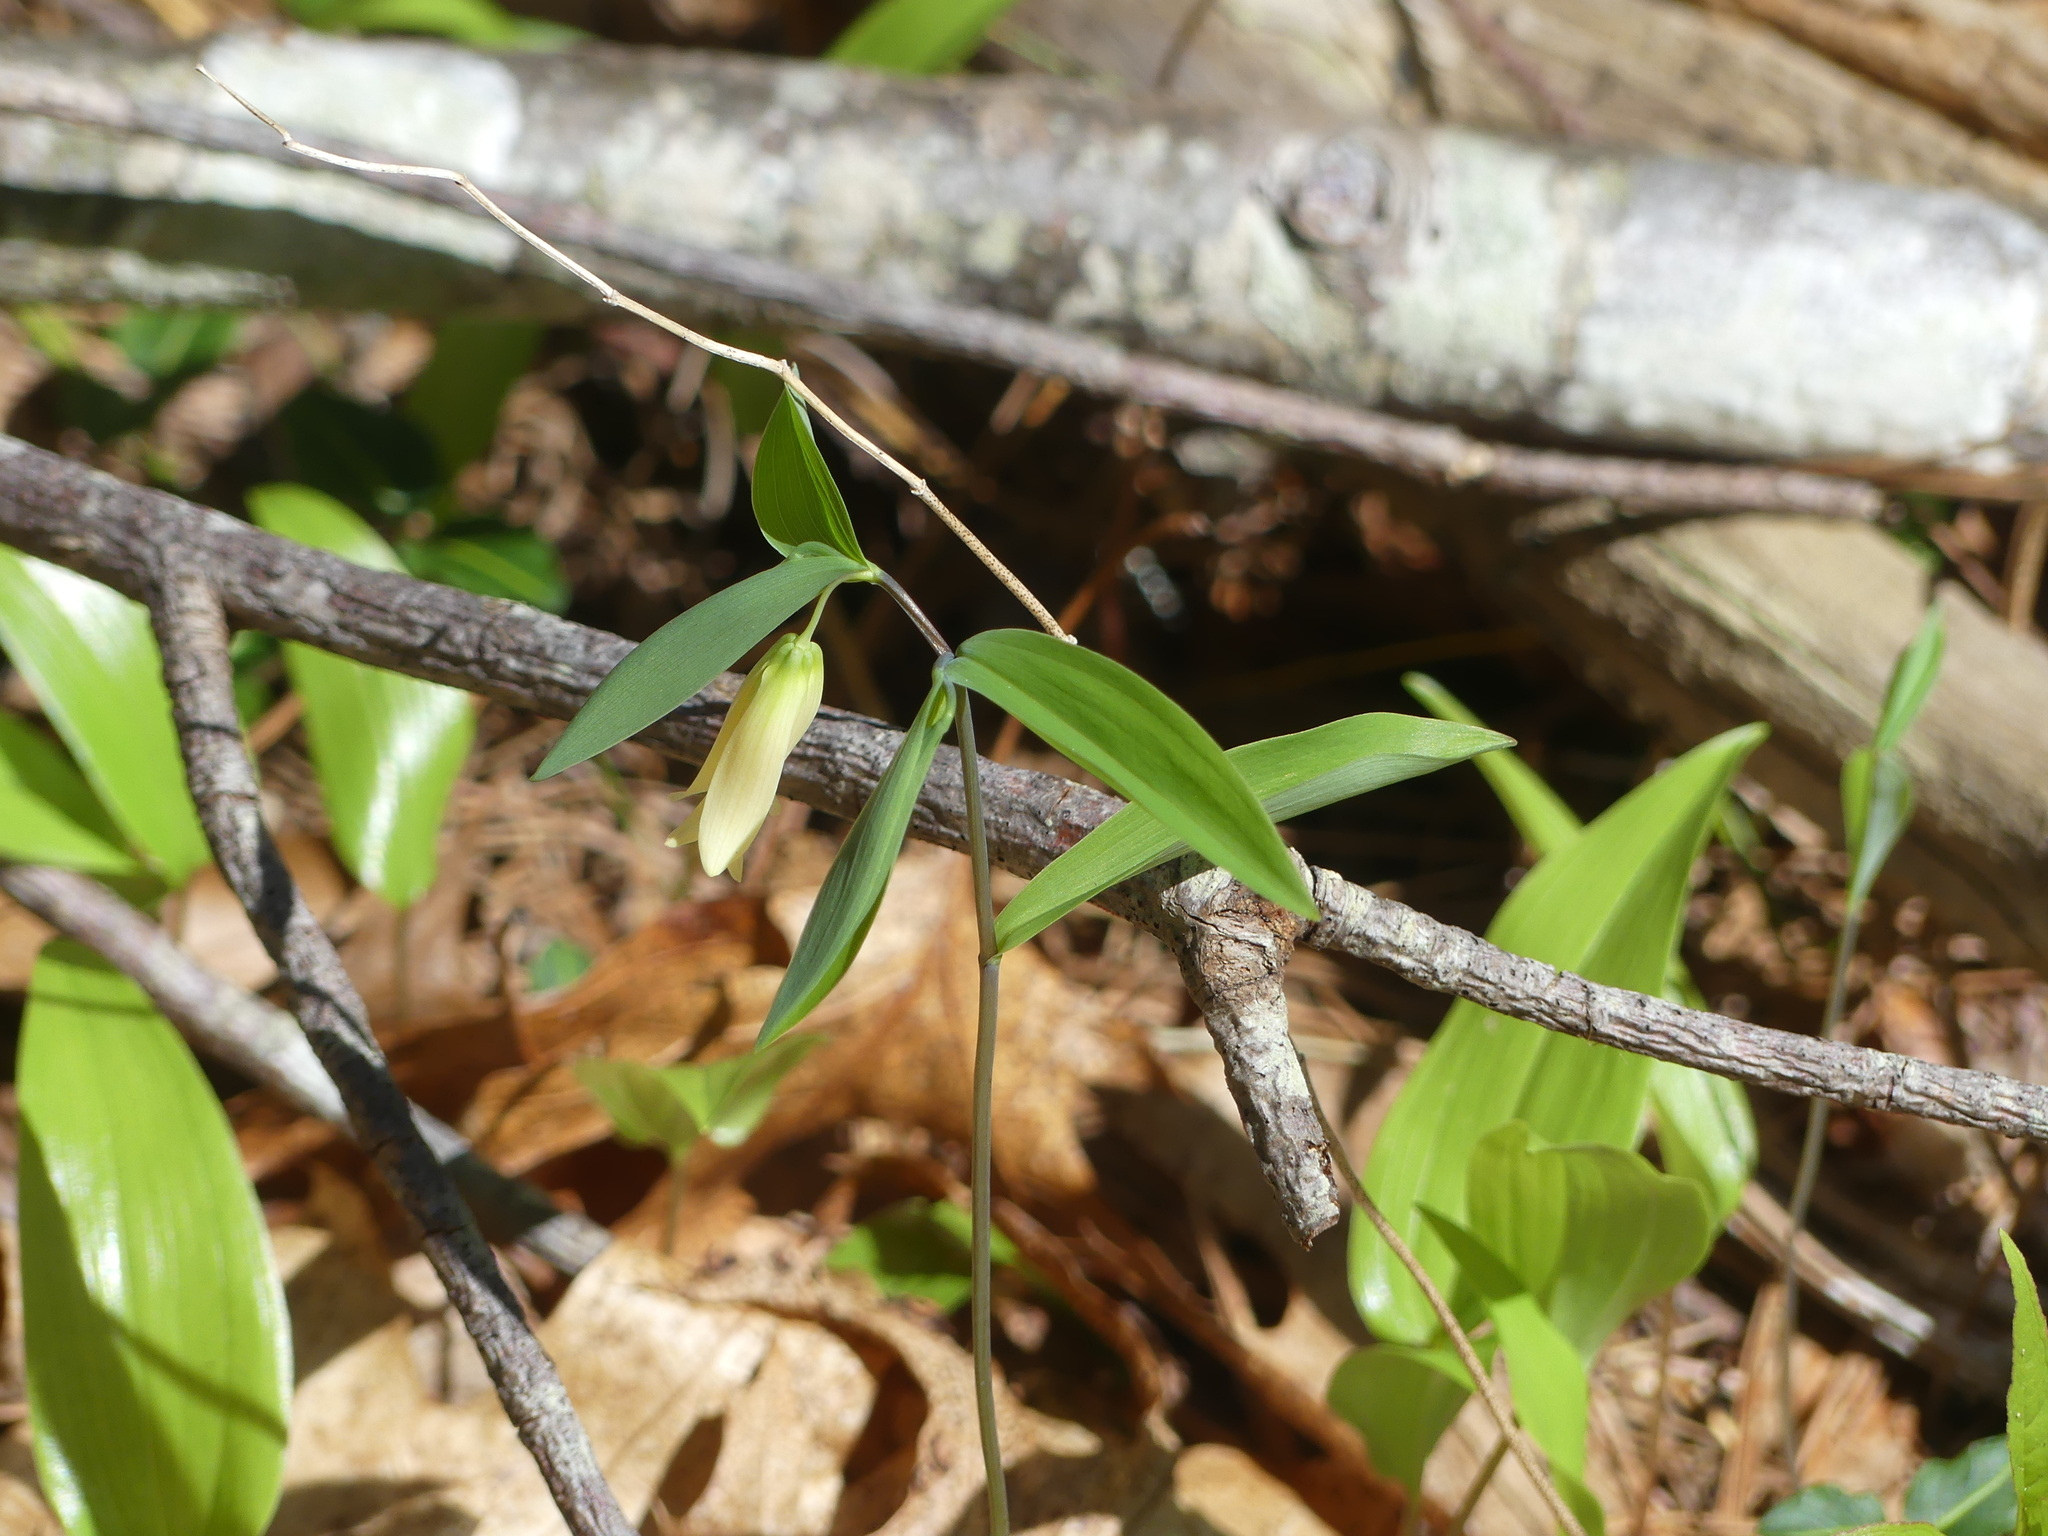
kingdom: Plantae
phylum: Tracheophyta
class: Liliopsida
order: Liliales
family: Colchicaceae
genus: Uvularia
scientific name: Uvularia sessilifolia
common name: Straw-lily
